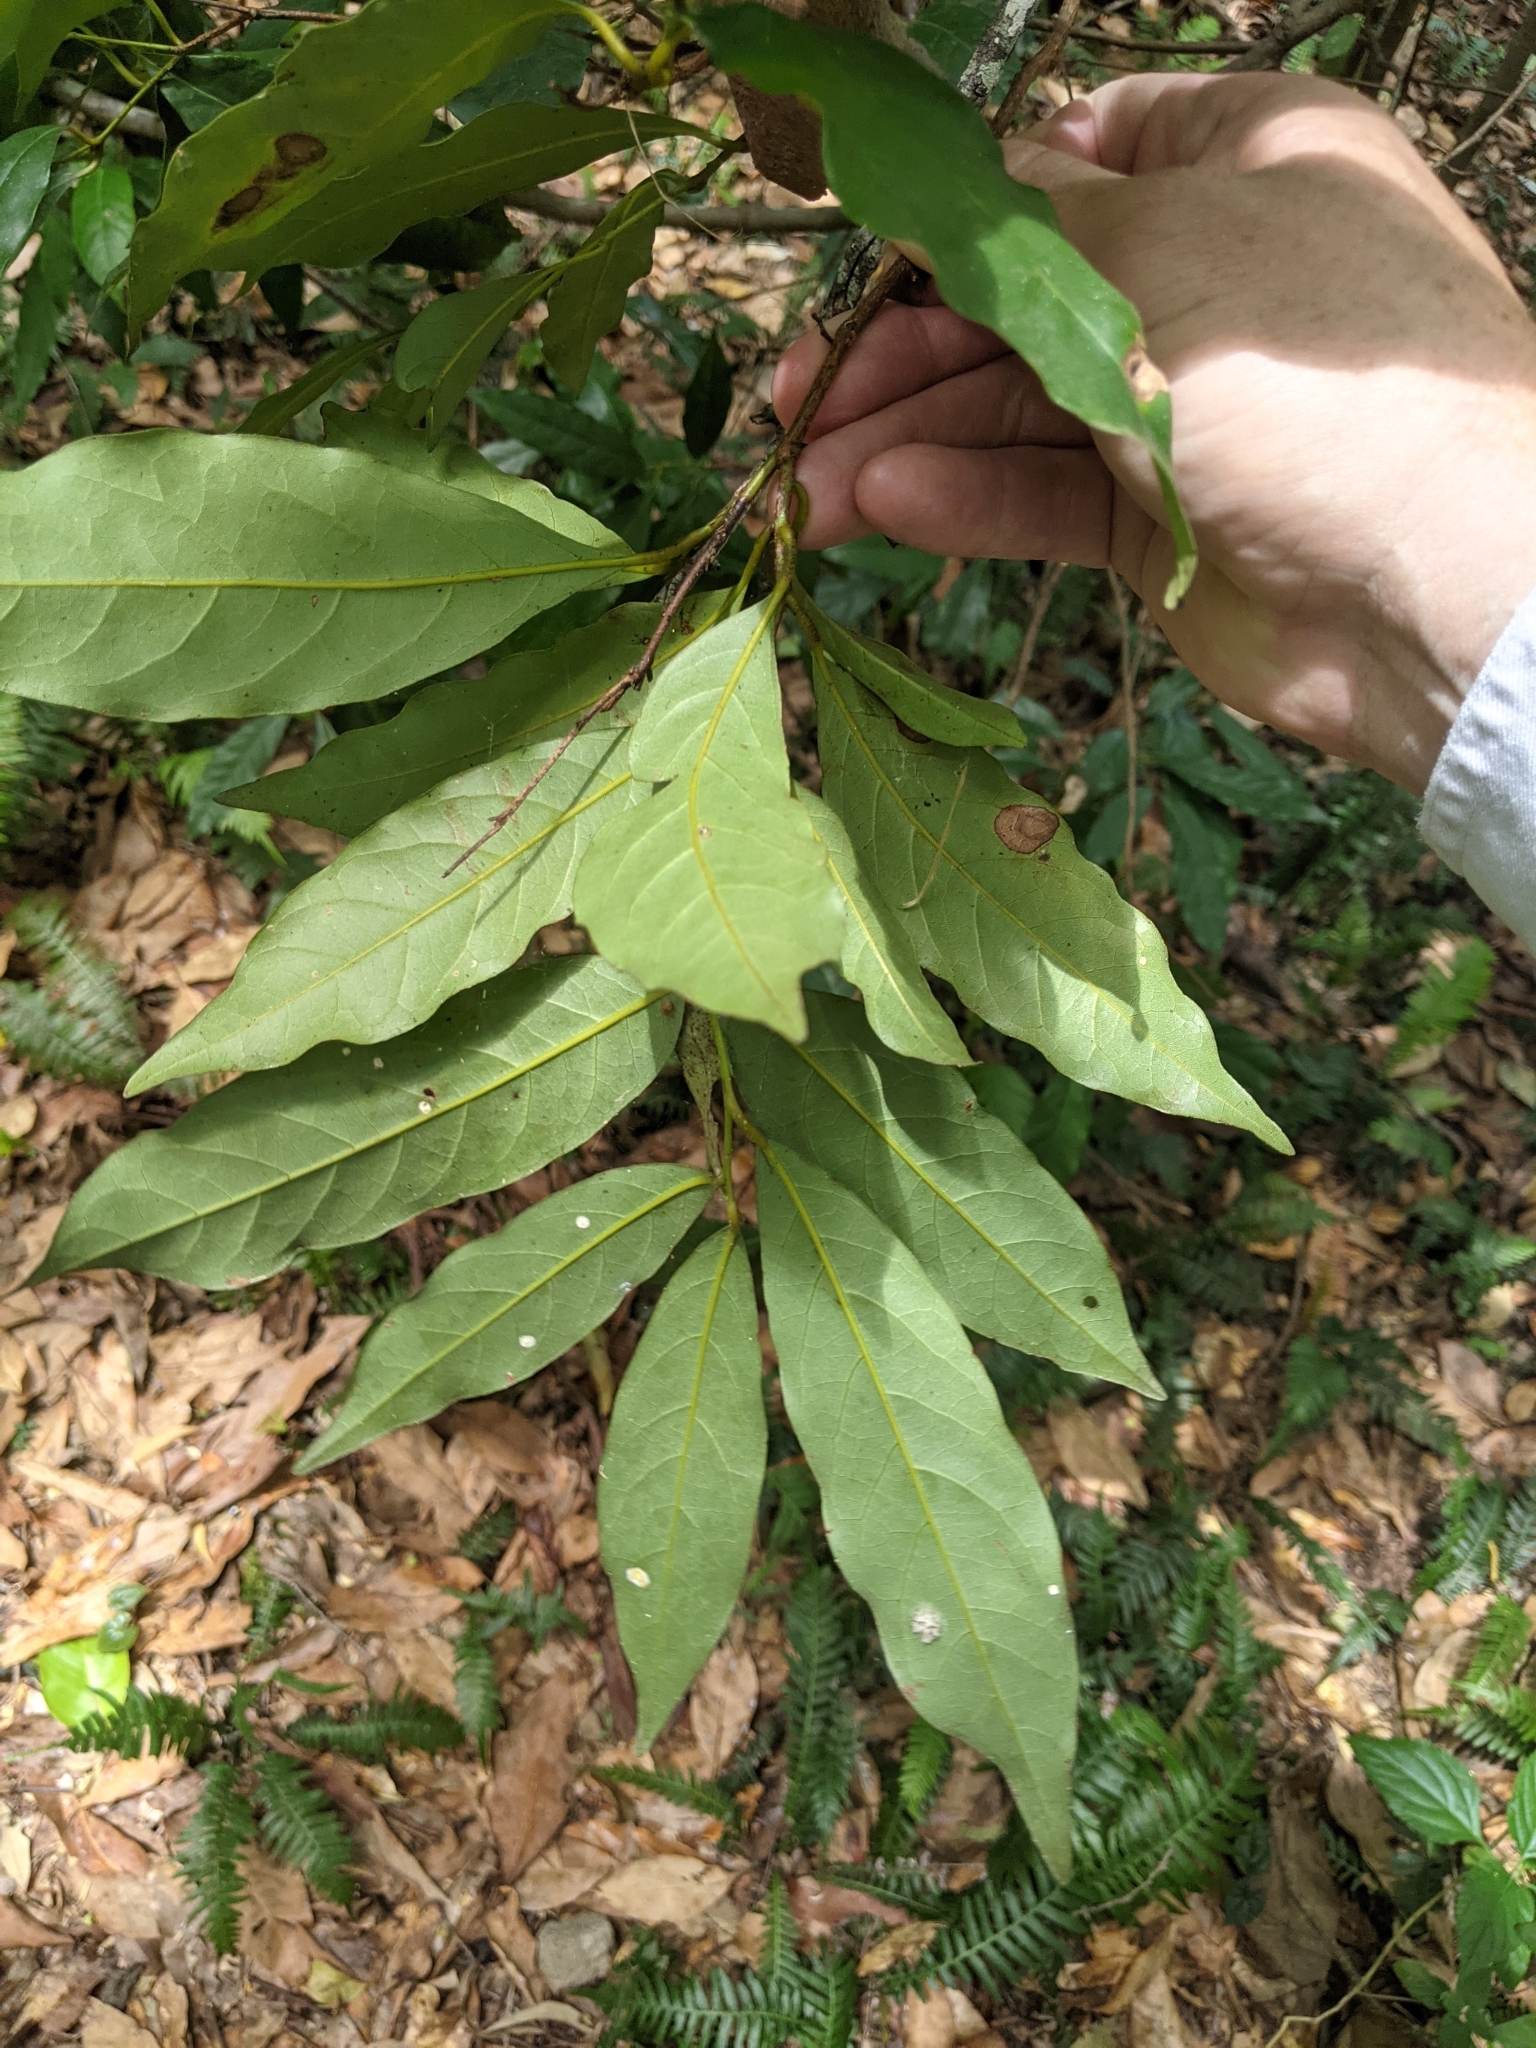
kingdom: Plantae
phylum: Tracheophyta
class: Magnoliopsida
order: Laurales
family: Lauraceae
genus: Cryptocarya
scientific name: Cryptocarya macdonaldii
